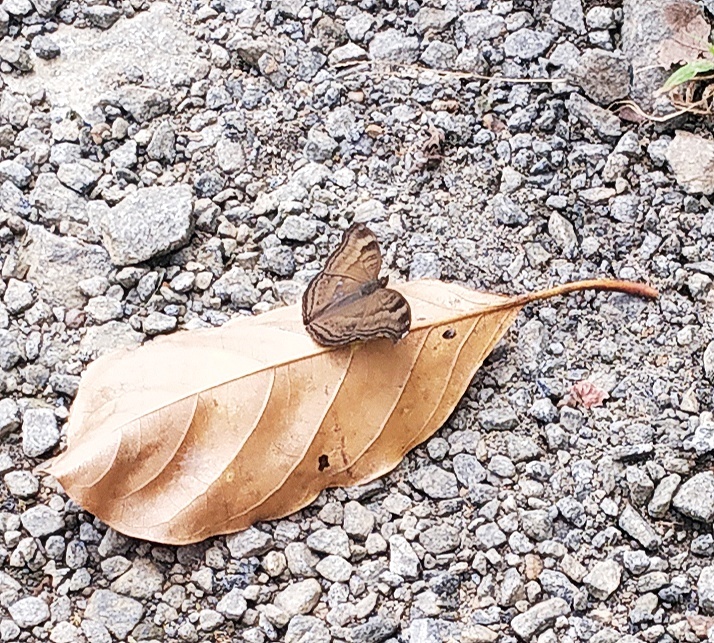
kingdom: Animalia
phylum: Arthropoda
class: Insecta
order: Lepidoptera
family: Nymphalidae
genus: Junonia
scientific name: Junonia iphita
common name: Chocolate pansy
